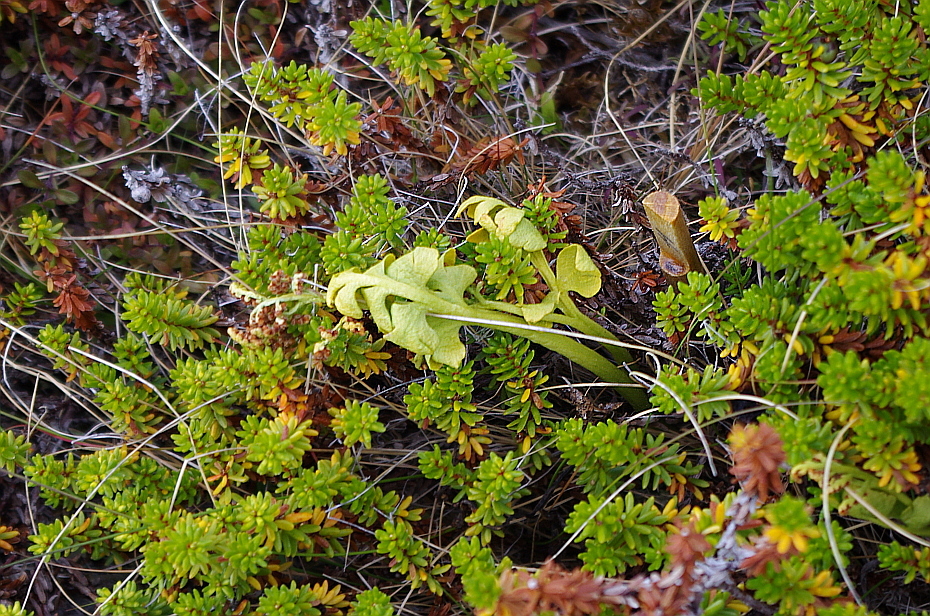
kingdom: Plantae
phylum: Tracheophyta
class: Polypodiopsida
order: Ophioglossales
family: Ophioglossaceae
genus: Botrychium
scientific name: Botrychium boreale
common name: Boreal moonwort
